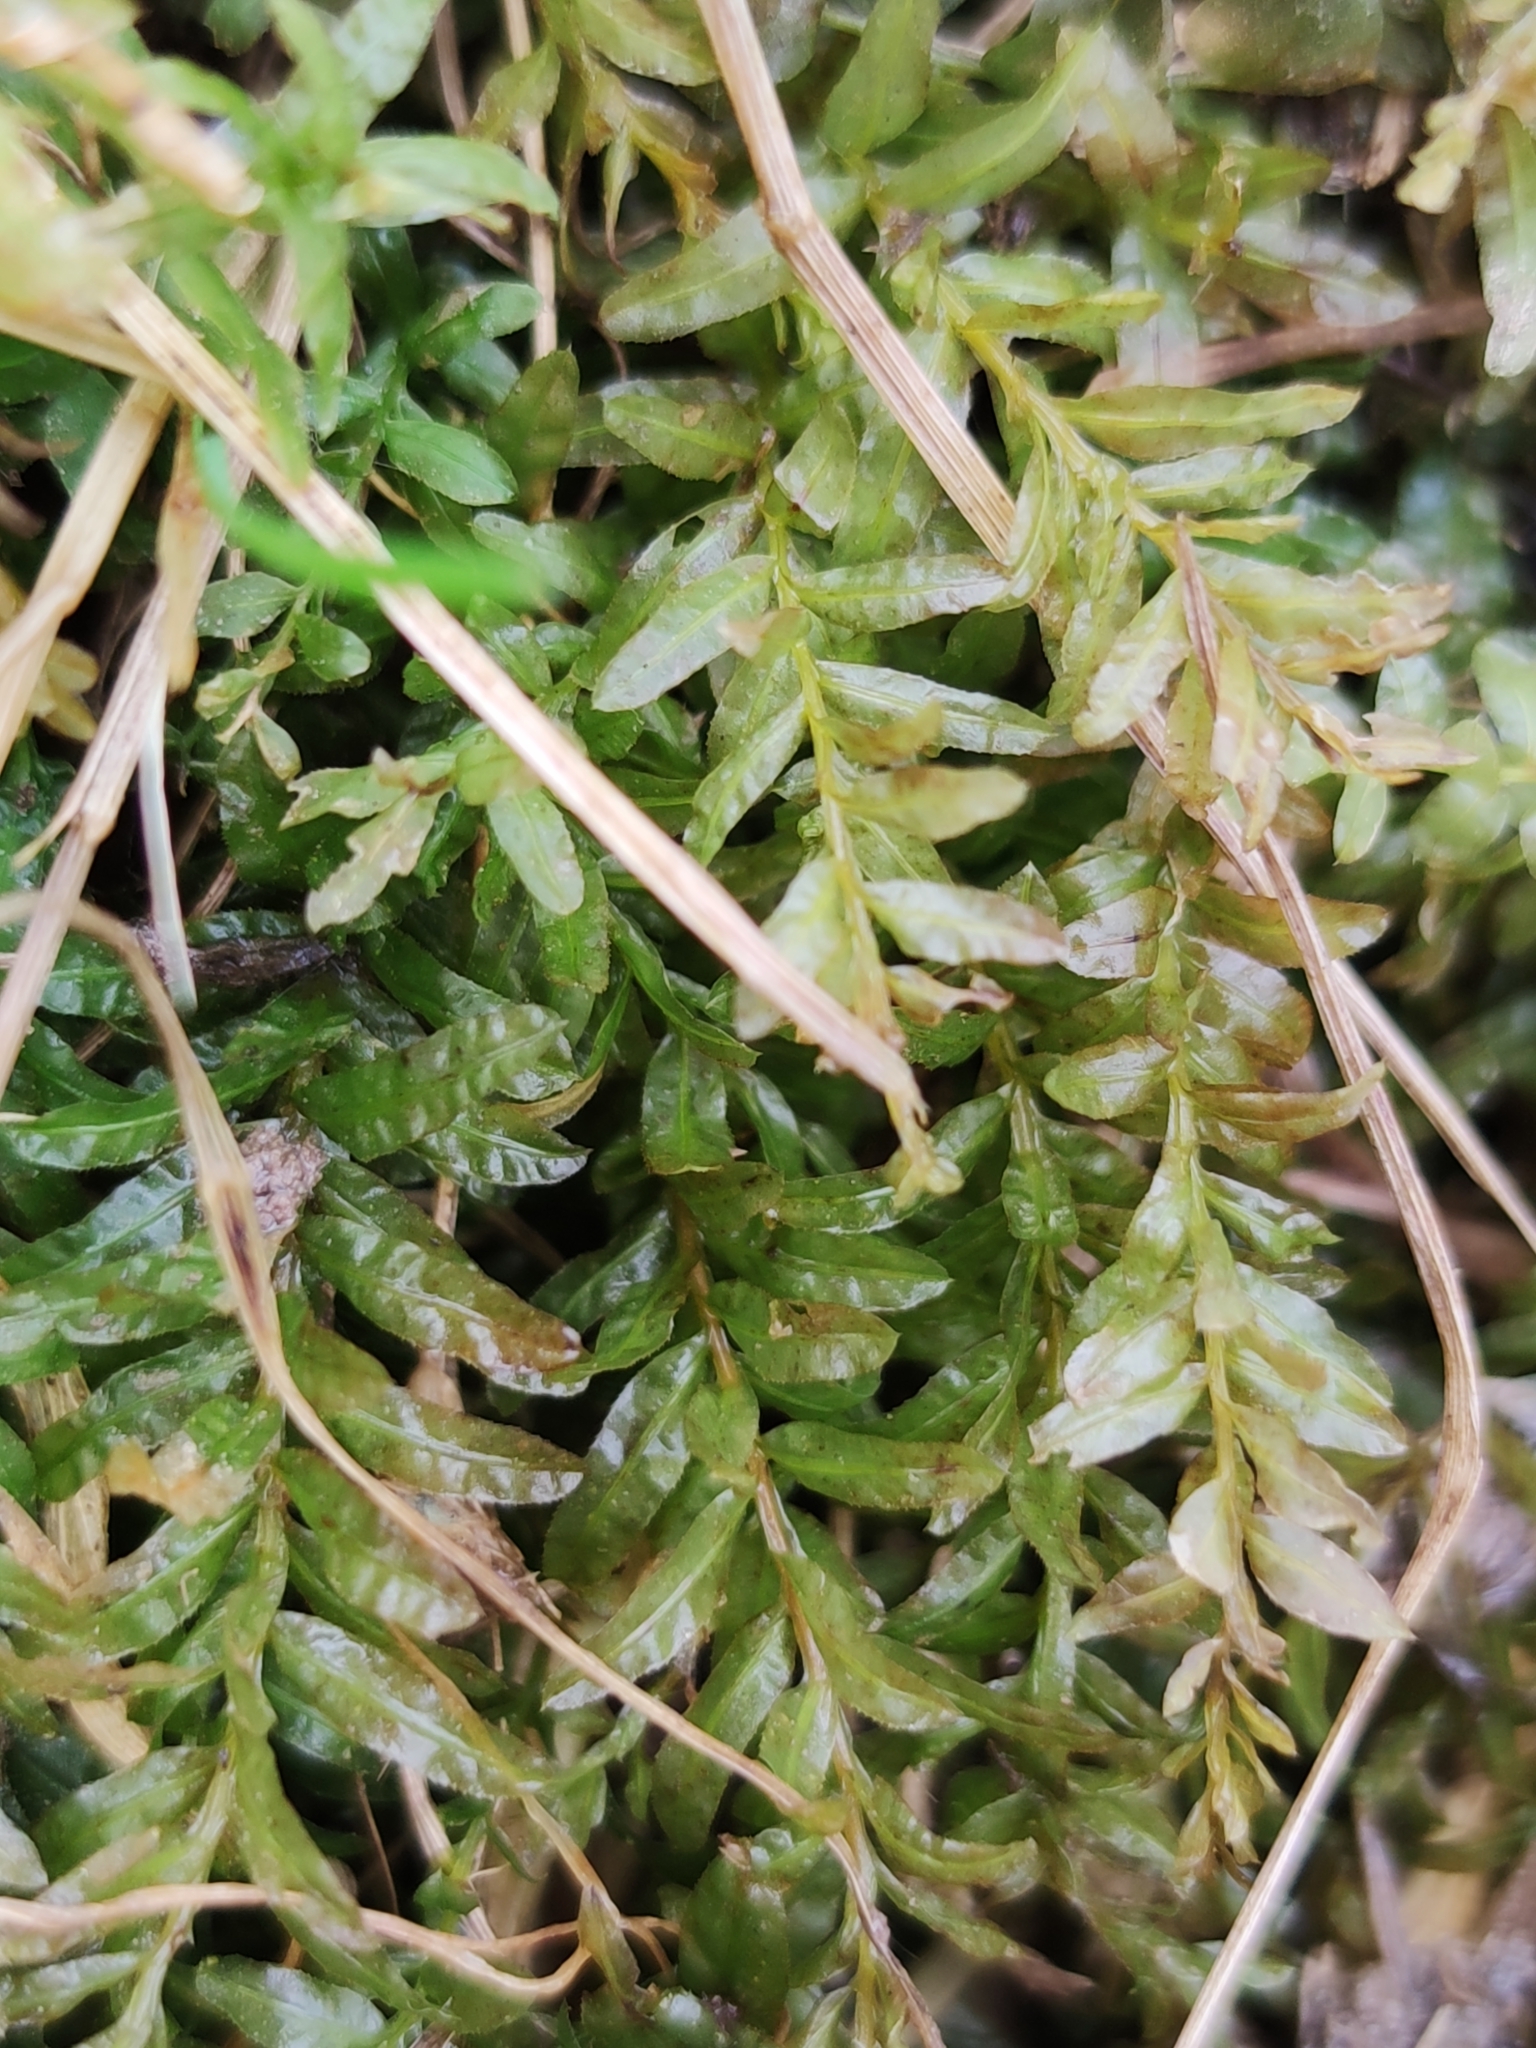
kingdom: Plantae
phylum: Bryophyta
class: Bryopsida
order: Bryales
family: Mniaceae
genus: Plagiomnium
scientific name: Plagiomnium undulatum
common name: Hart's-tongue thyme-moss
